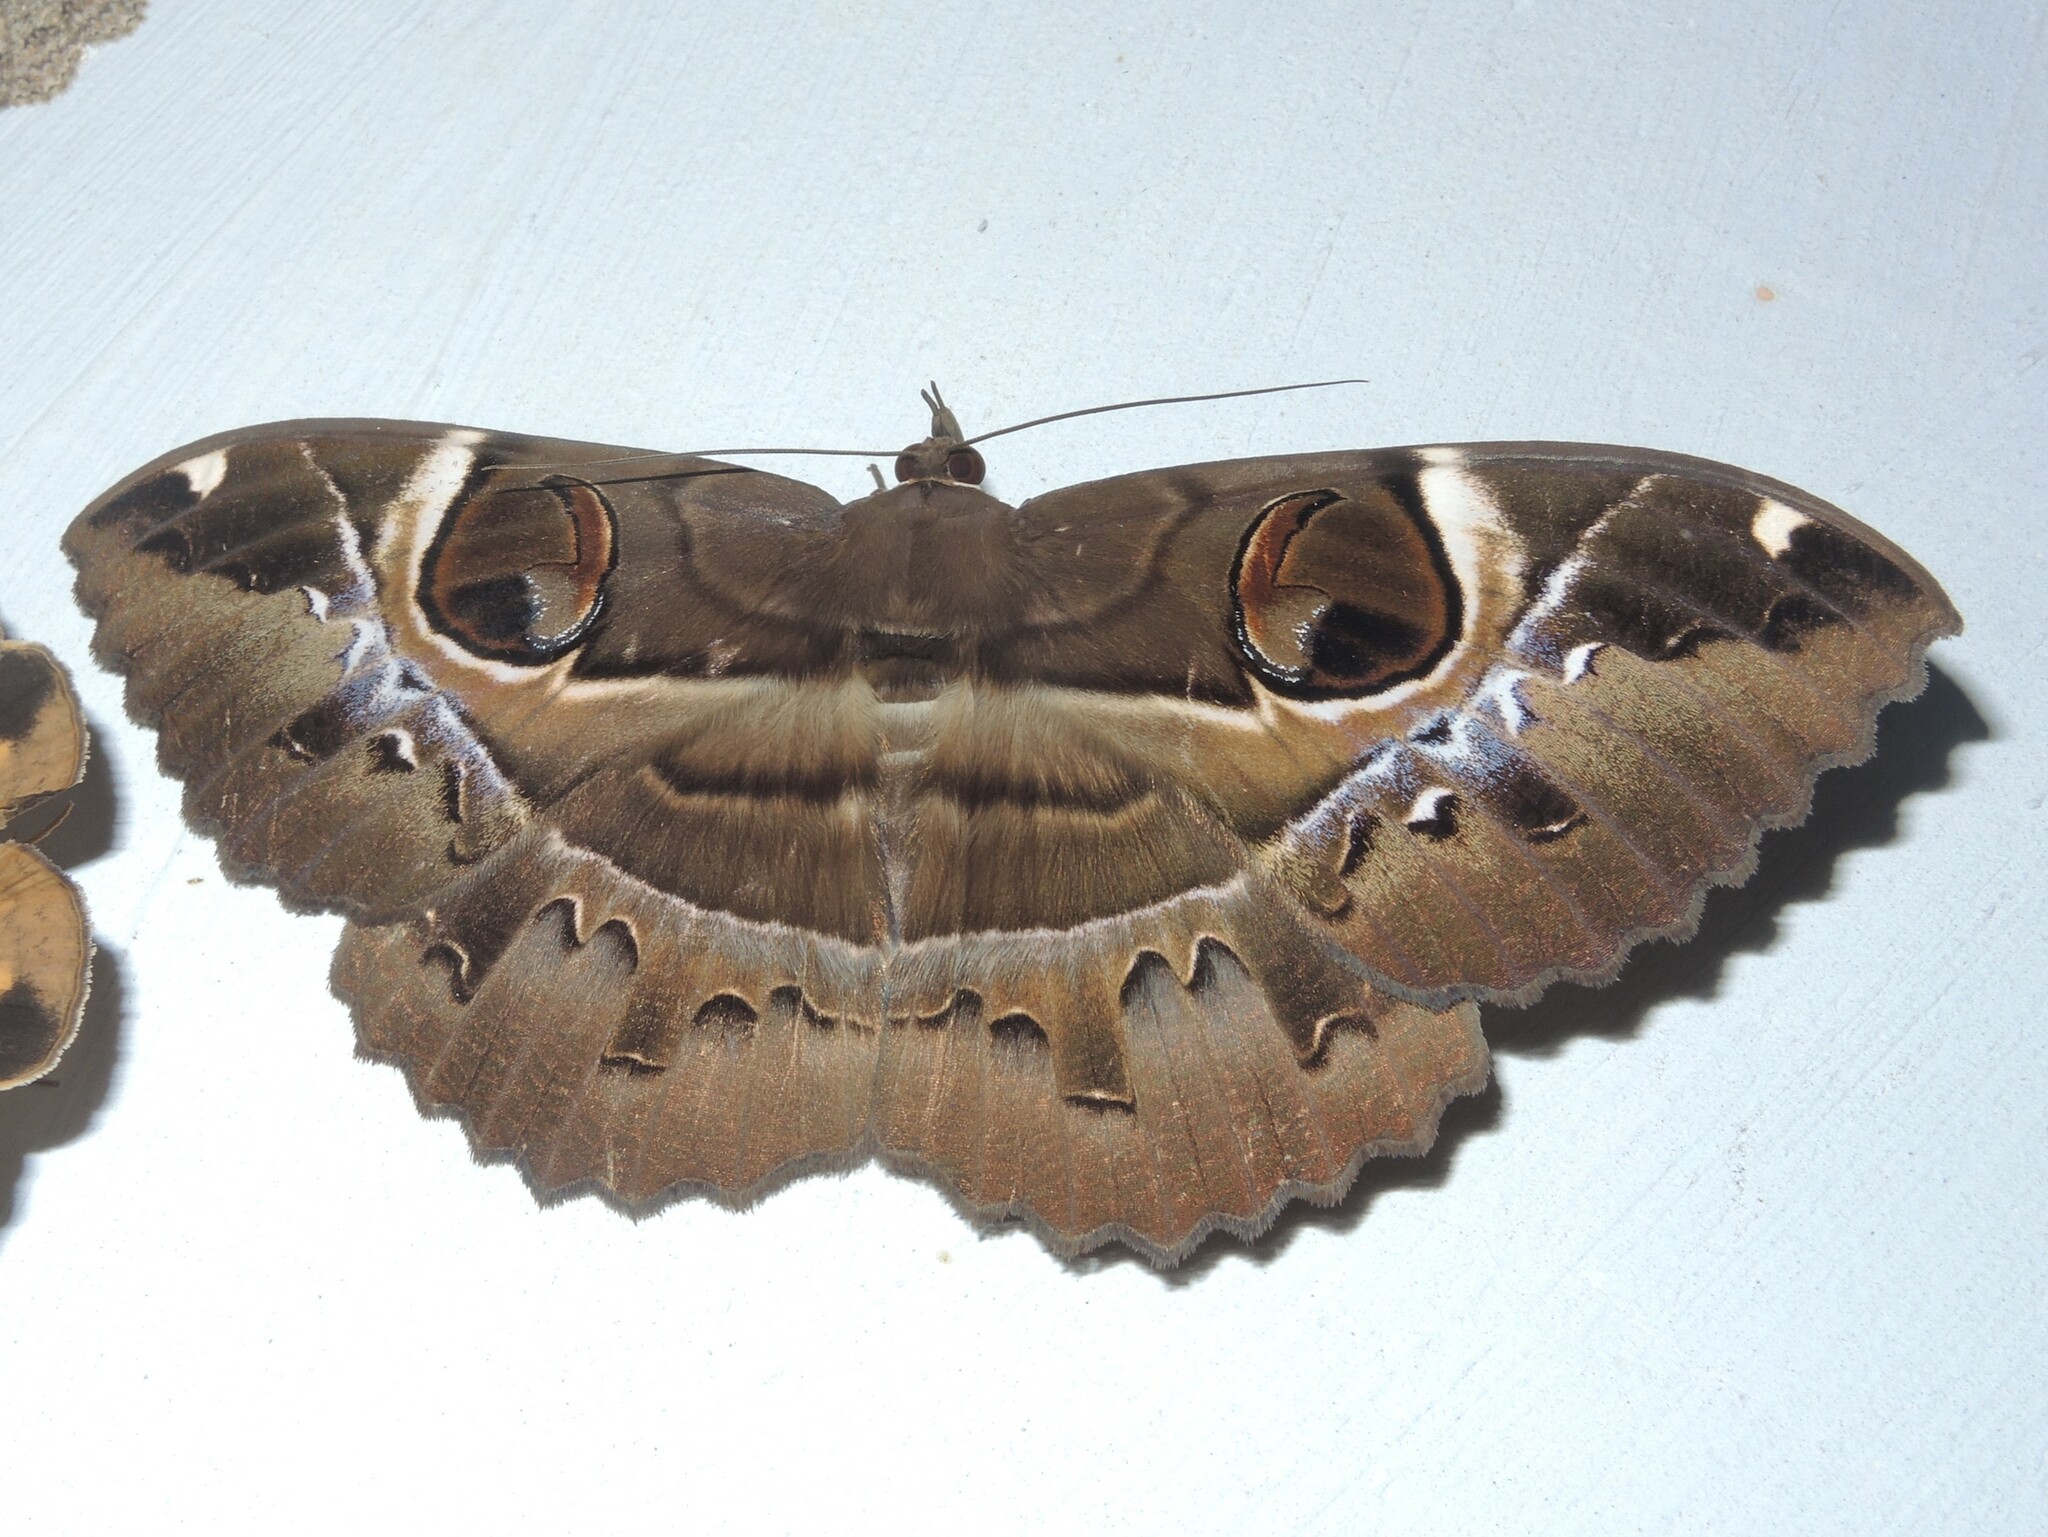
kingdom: Animalia
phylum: Arthropoda
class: Insecta
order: Lepidoptera
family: Erebidae
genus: Erebus
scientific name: Erebus ephesperis
